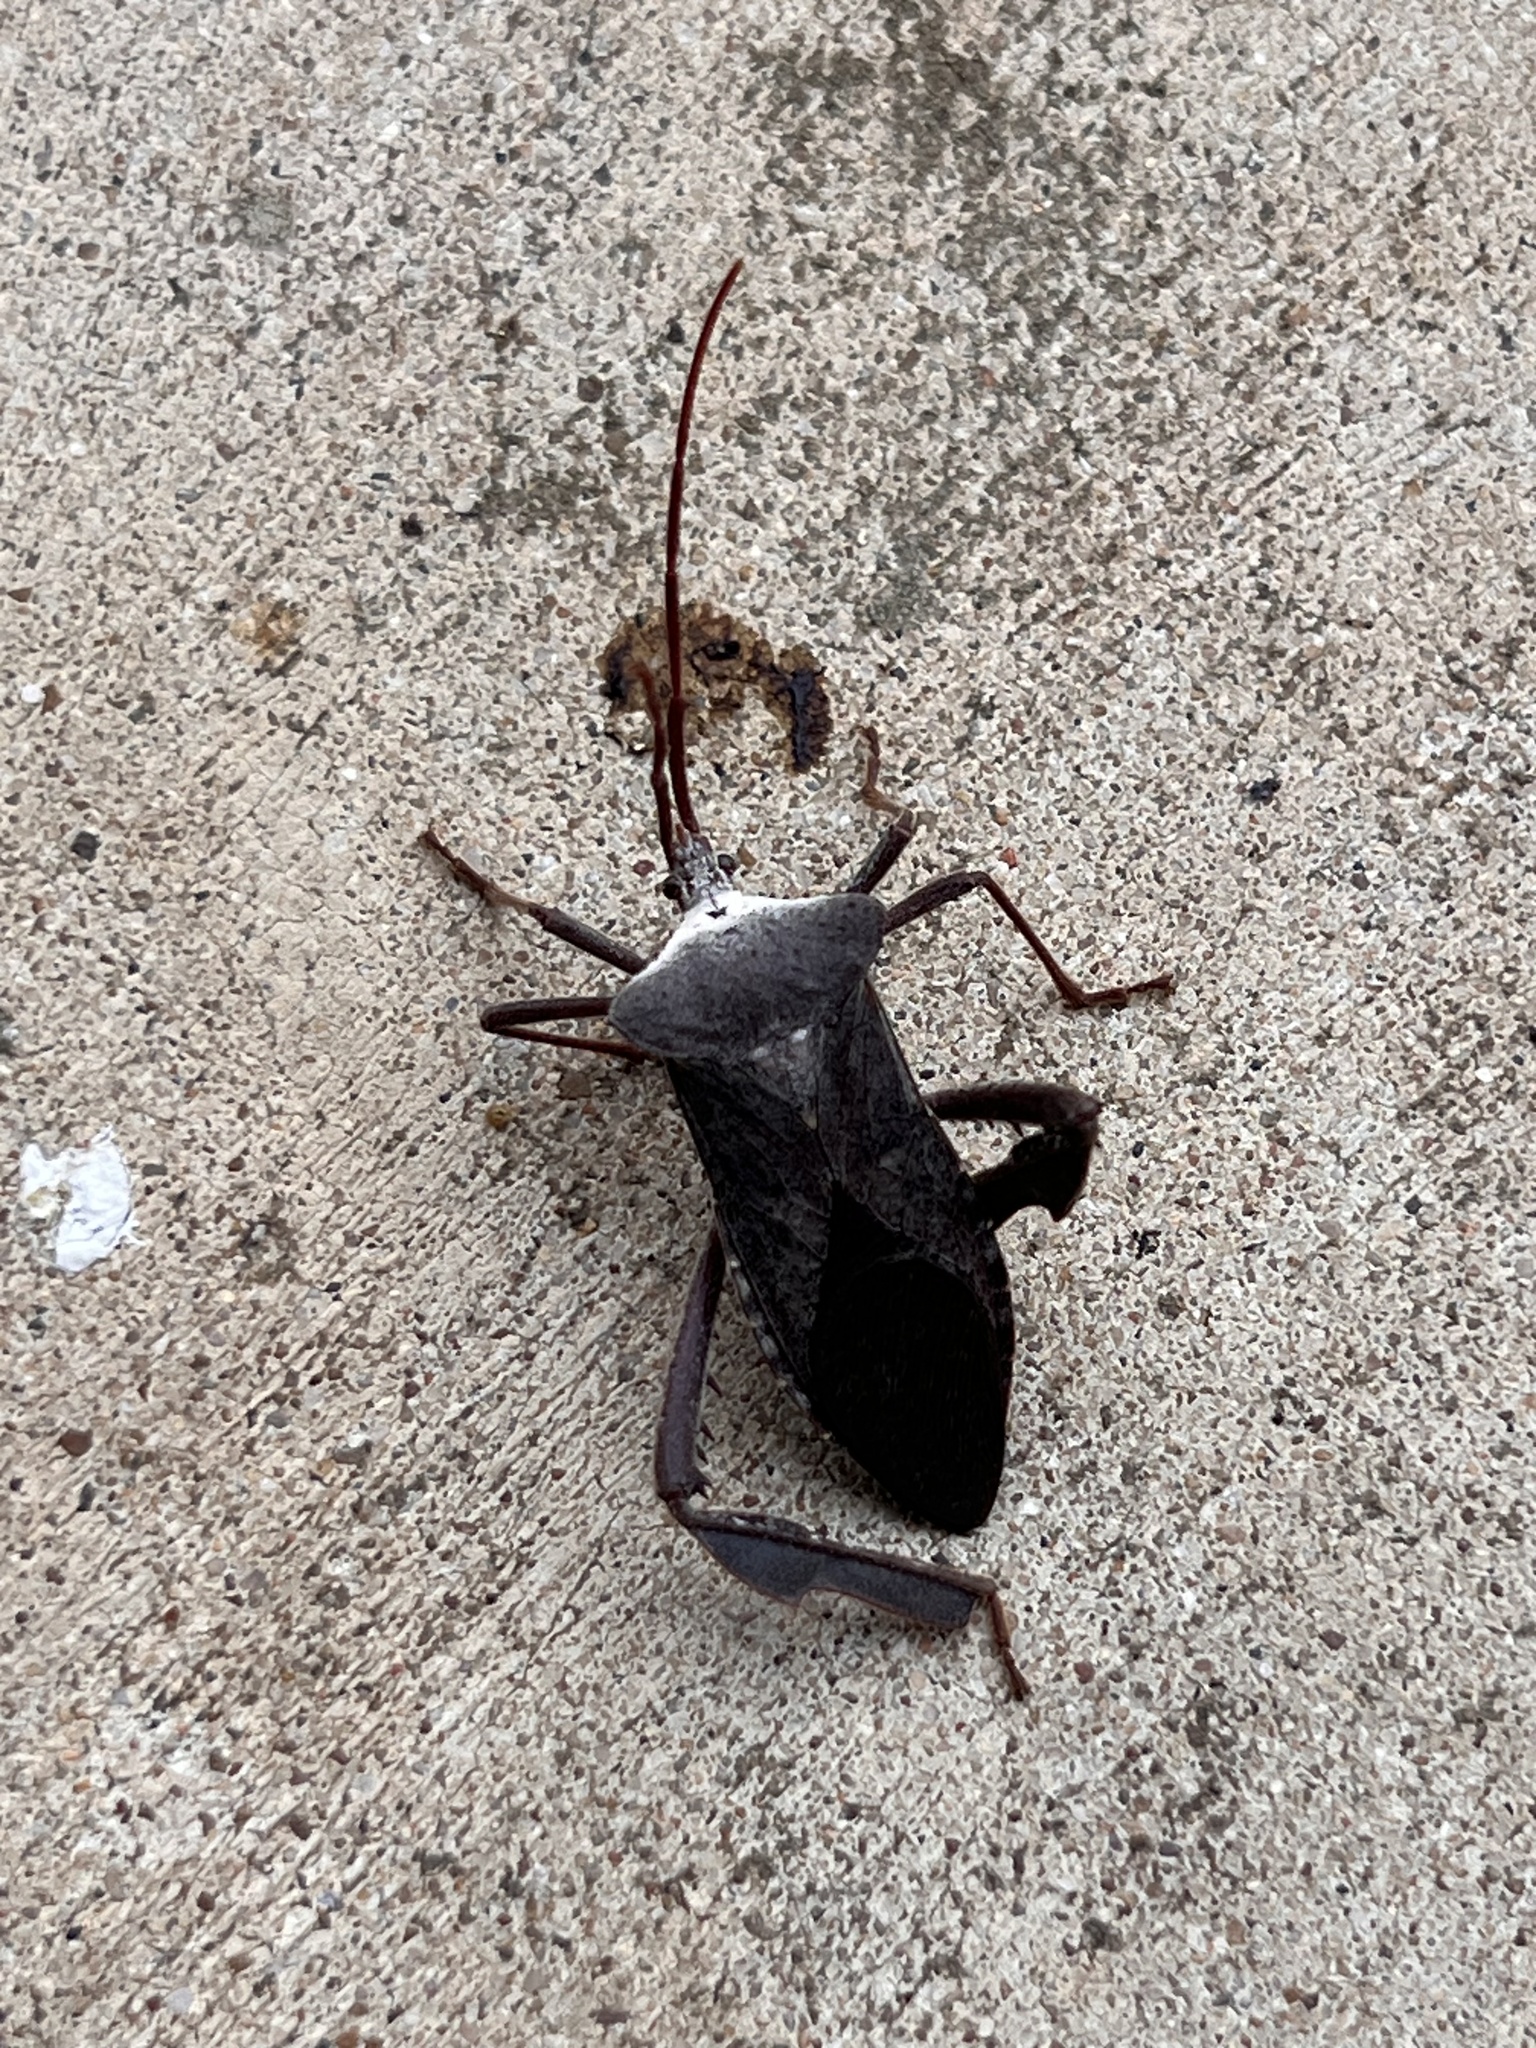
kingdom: Animalia
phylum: Arthropoda
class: Insecta
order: Hemiptera
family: Coreidae
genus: Acanthocephala
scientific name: Acanthocephala declivis
